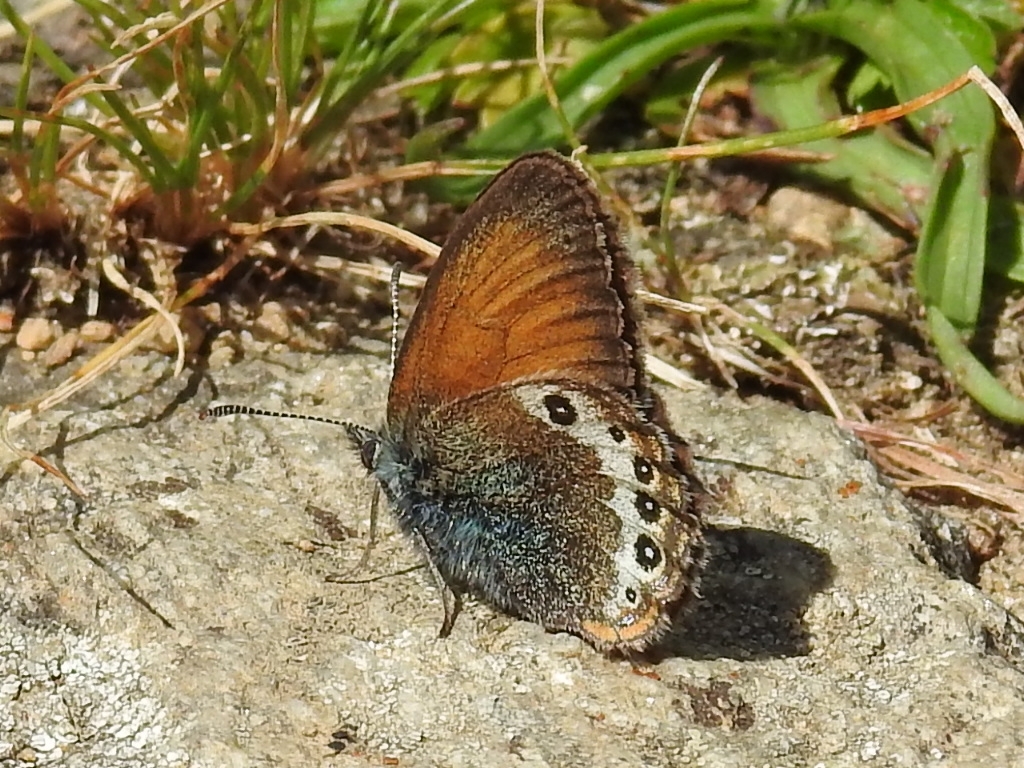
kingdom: Animalia
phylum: Arthropoda
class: Insecta
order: Lepidoptera
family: Nymphalidae
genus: Coenonympha
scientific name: Coenonympha
